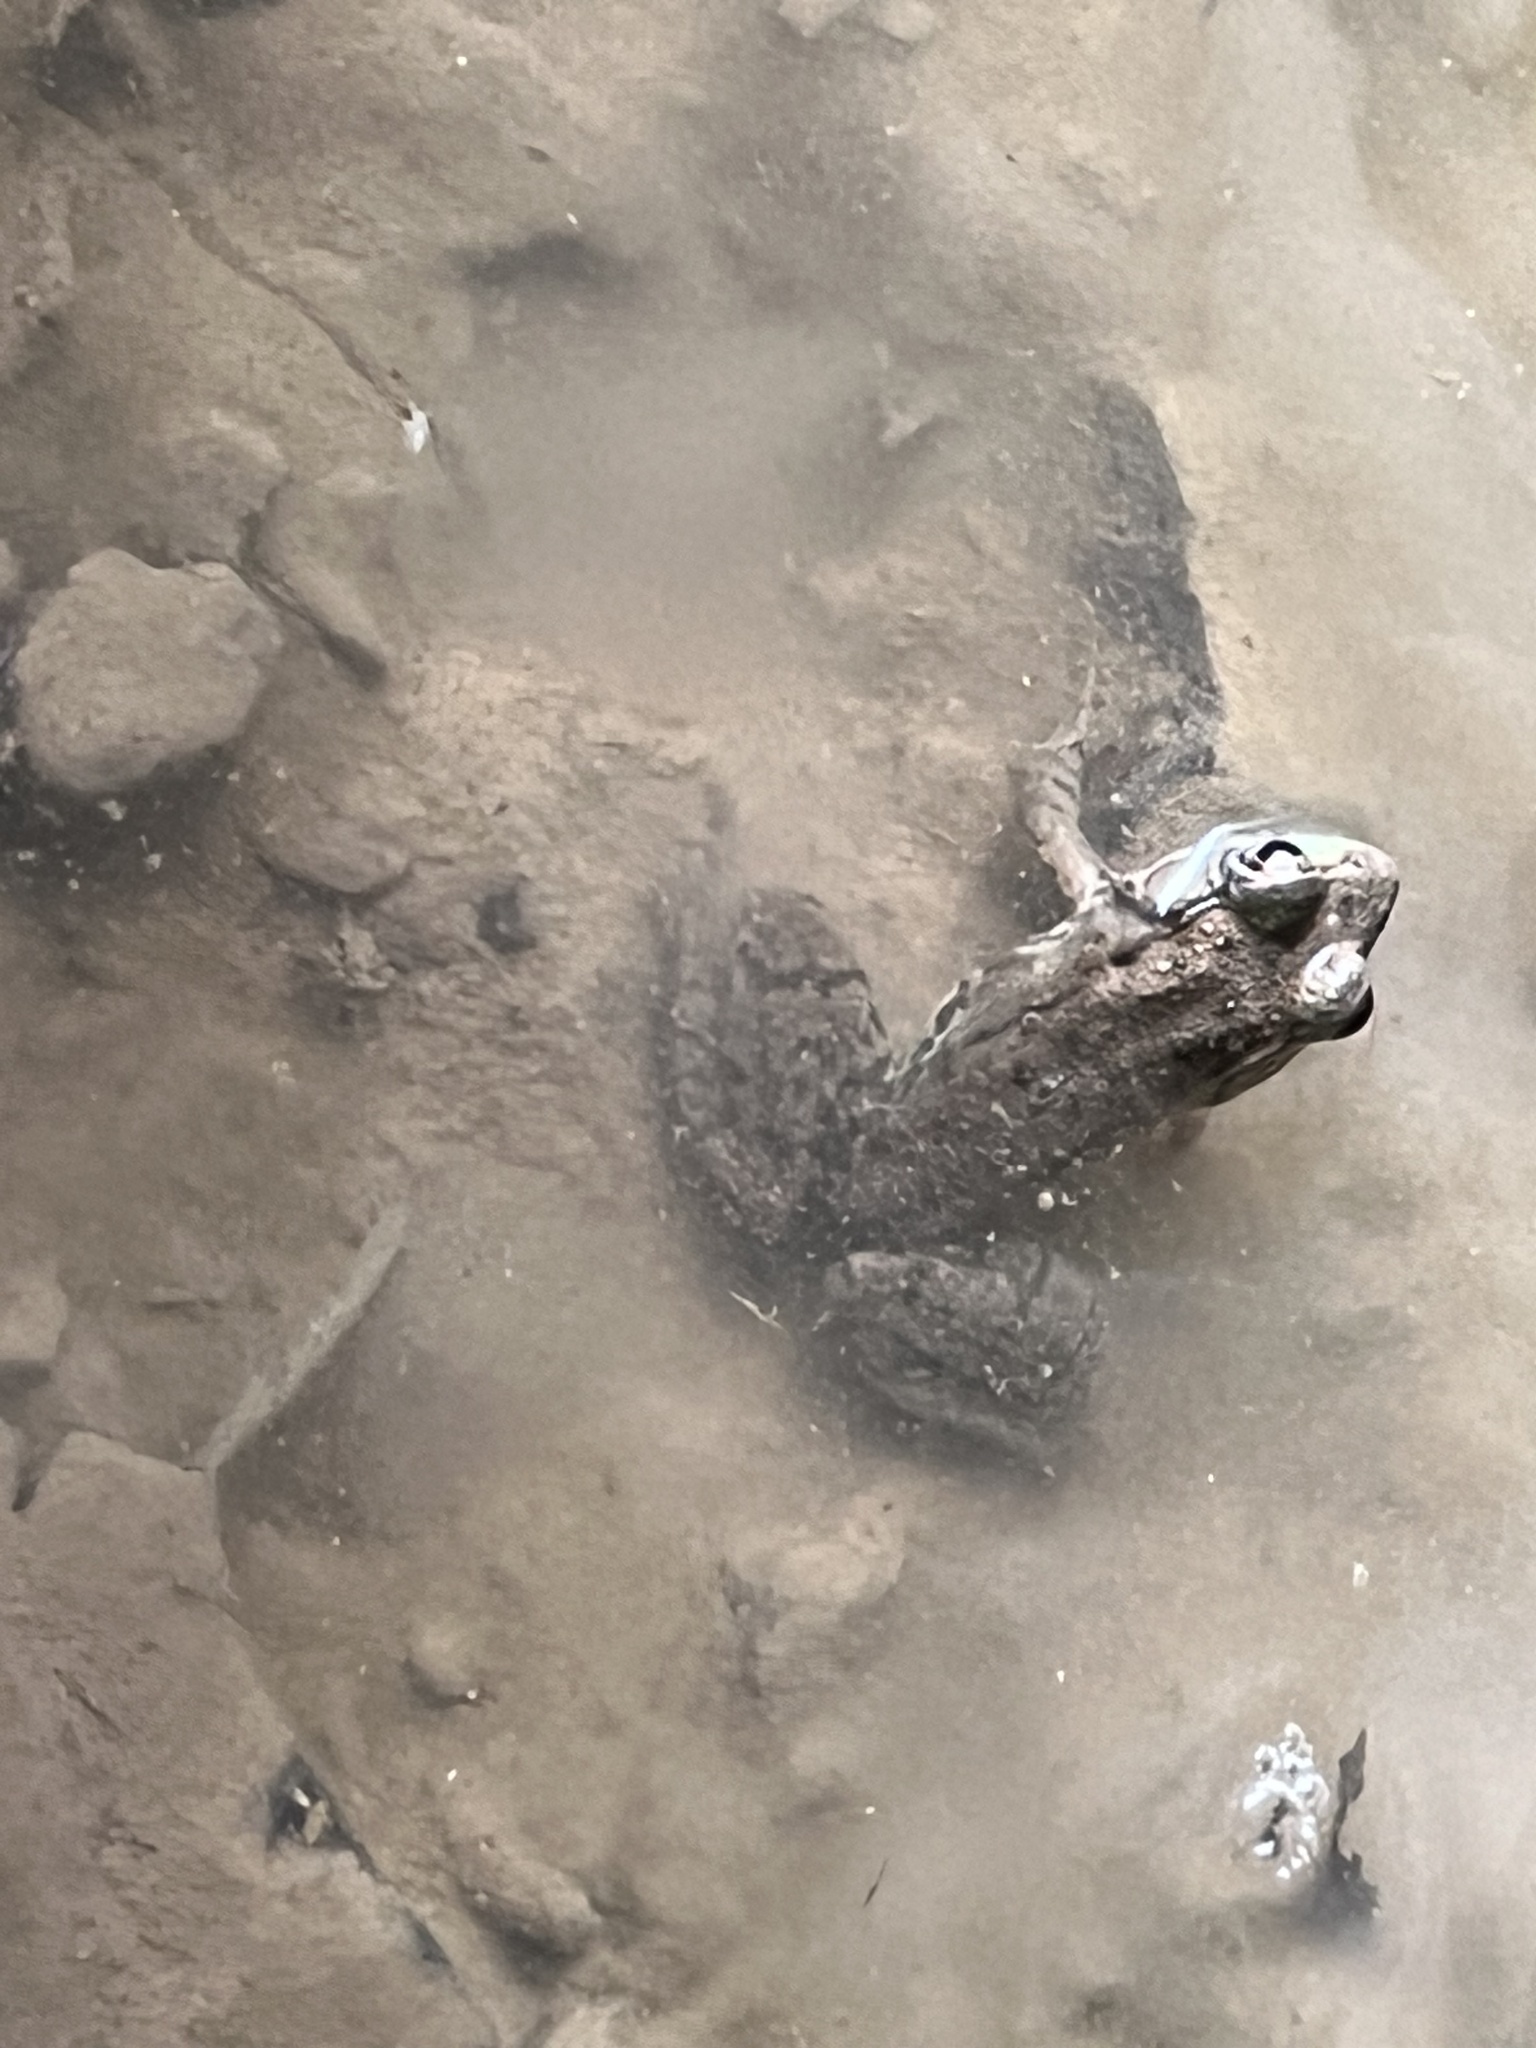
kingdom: Animalia
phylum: Chordata
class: Amphibia
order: Anura
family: Ranidae
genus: Lithobates
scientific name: Lithobates clamitans
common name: Green frog
